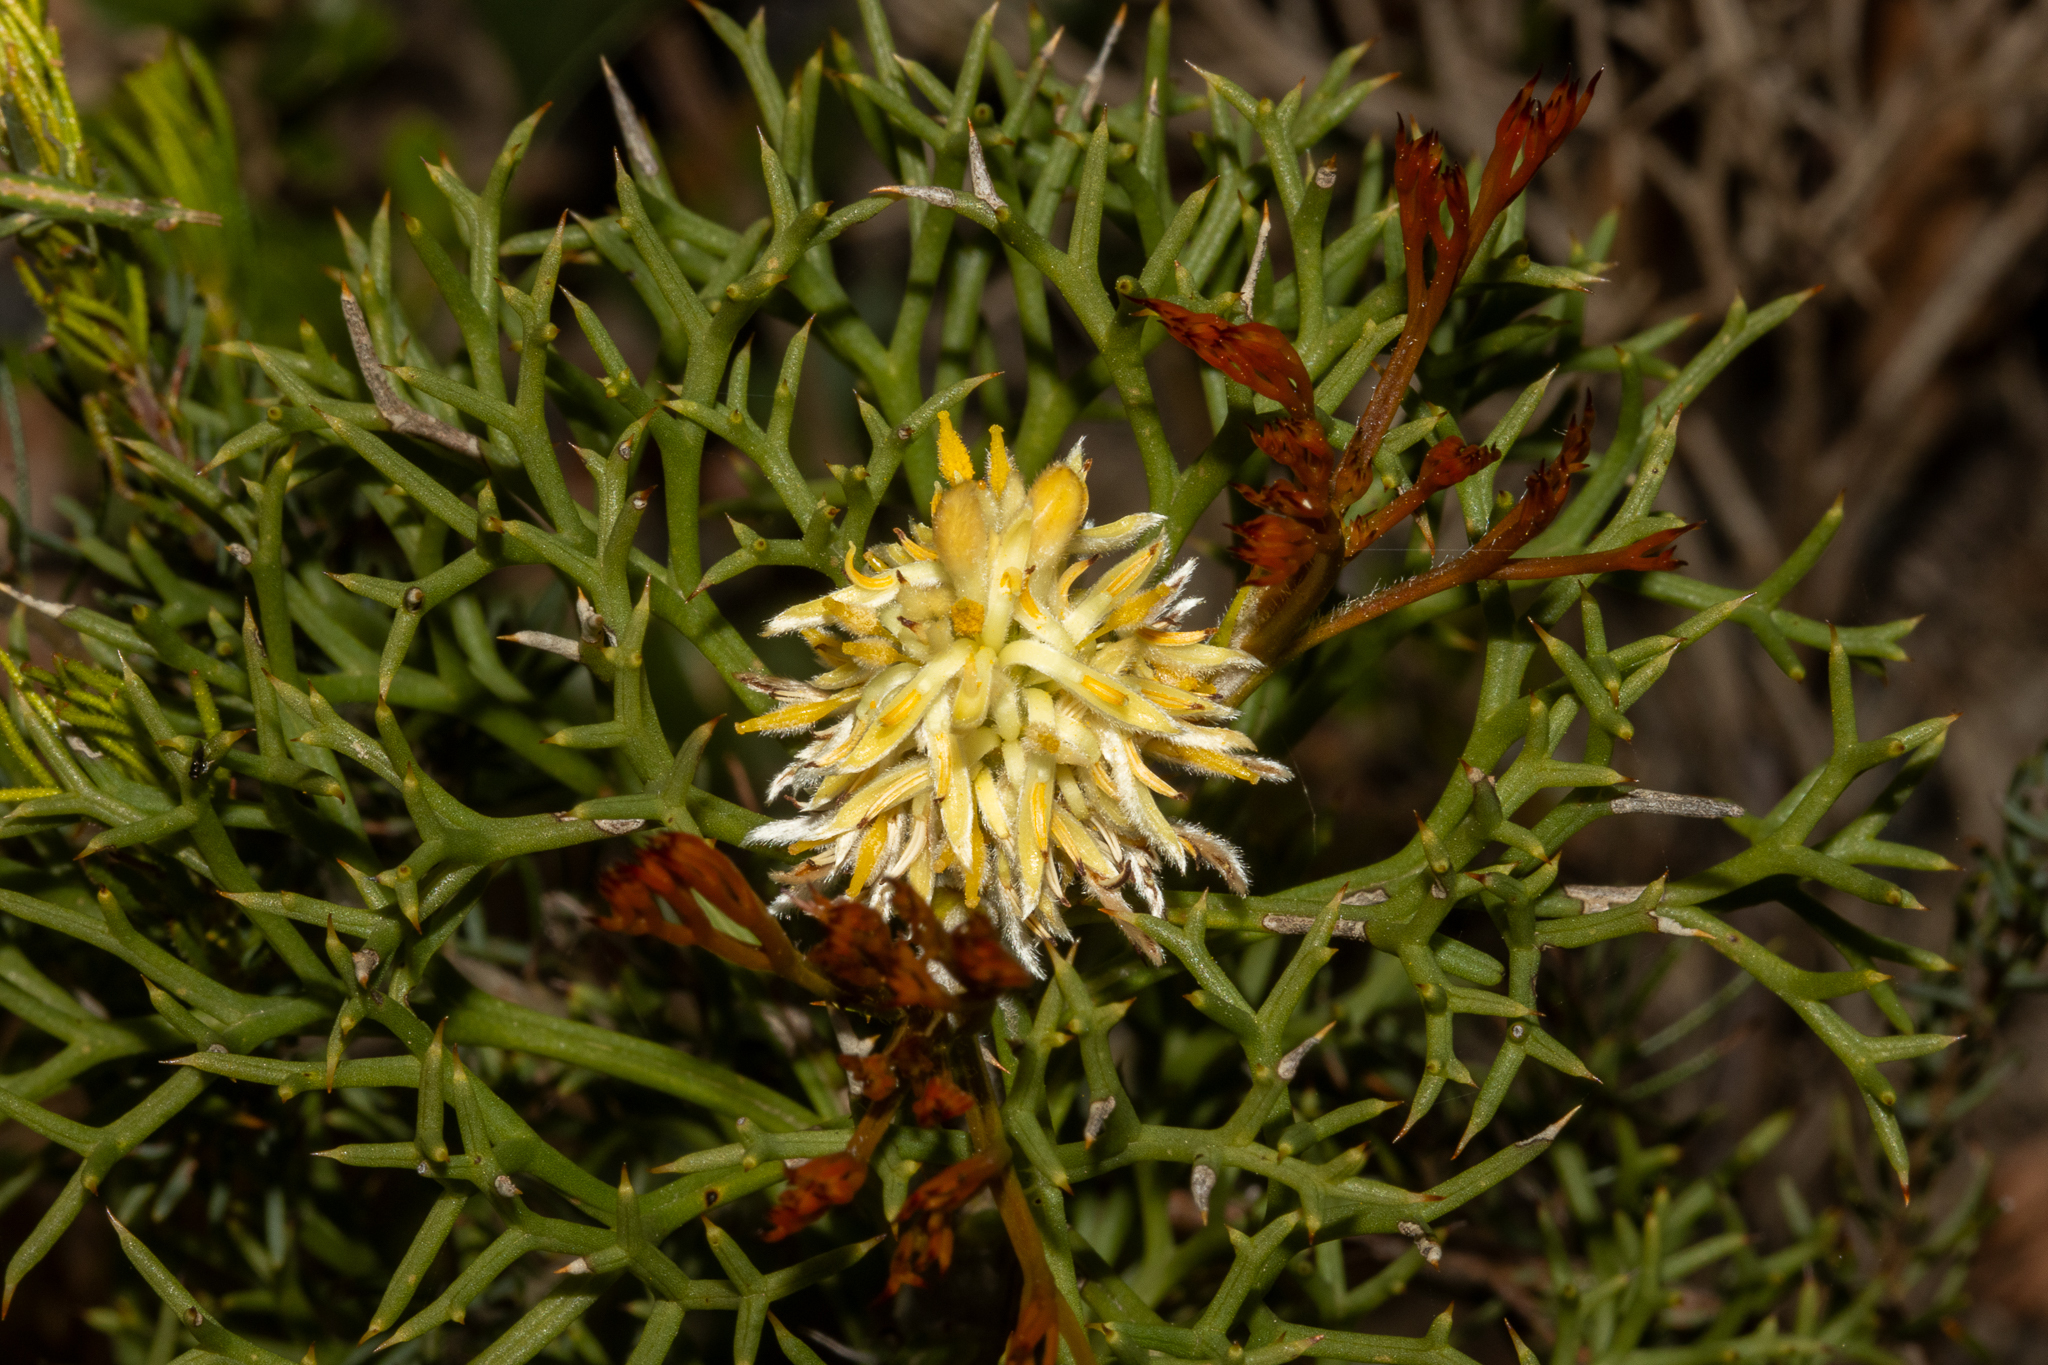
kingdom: Plantae
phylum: Tracheophyta
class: Magnoliopsida
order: Proteales
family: Proteaceae
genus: Petrophile
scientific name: Petrophile multisecta
